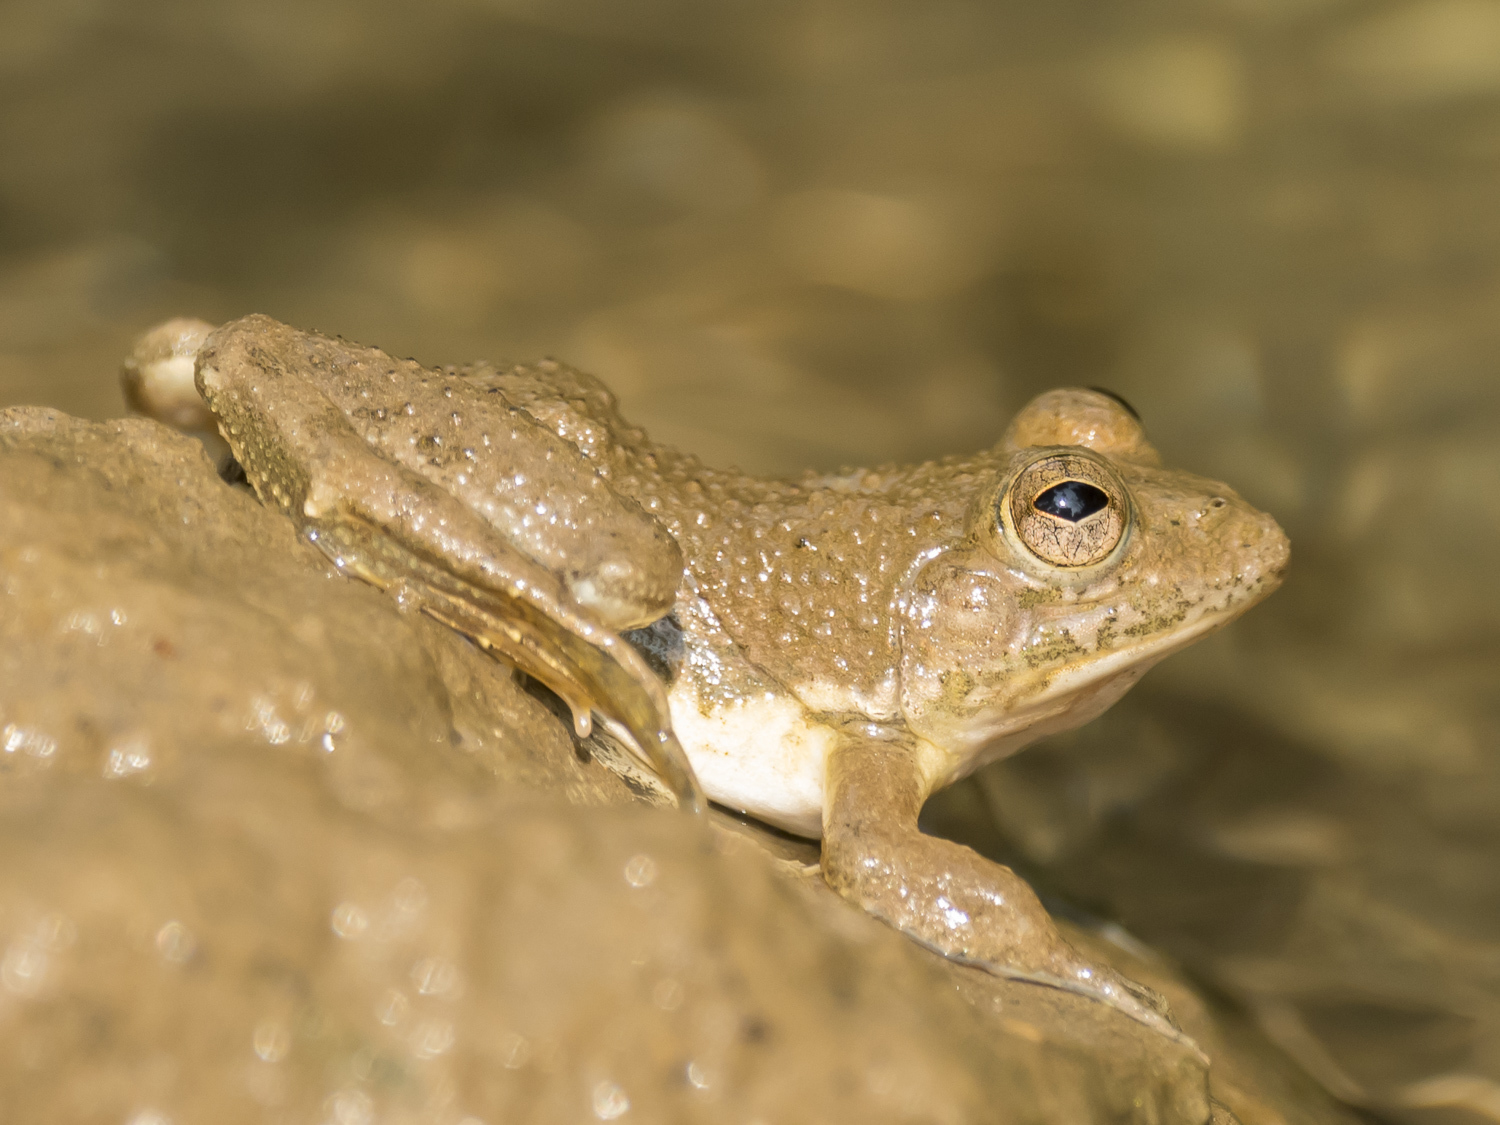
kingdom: Animalia
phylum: Chordata
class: Amphibia
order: Anura
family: Dicroglossidae
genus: Euphlyctis
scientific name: Euphlyctis cyanophlyctis
